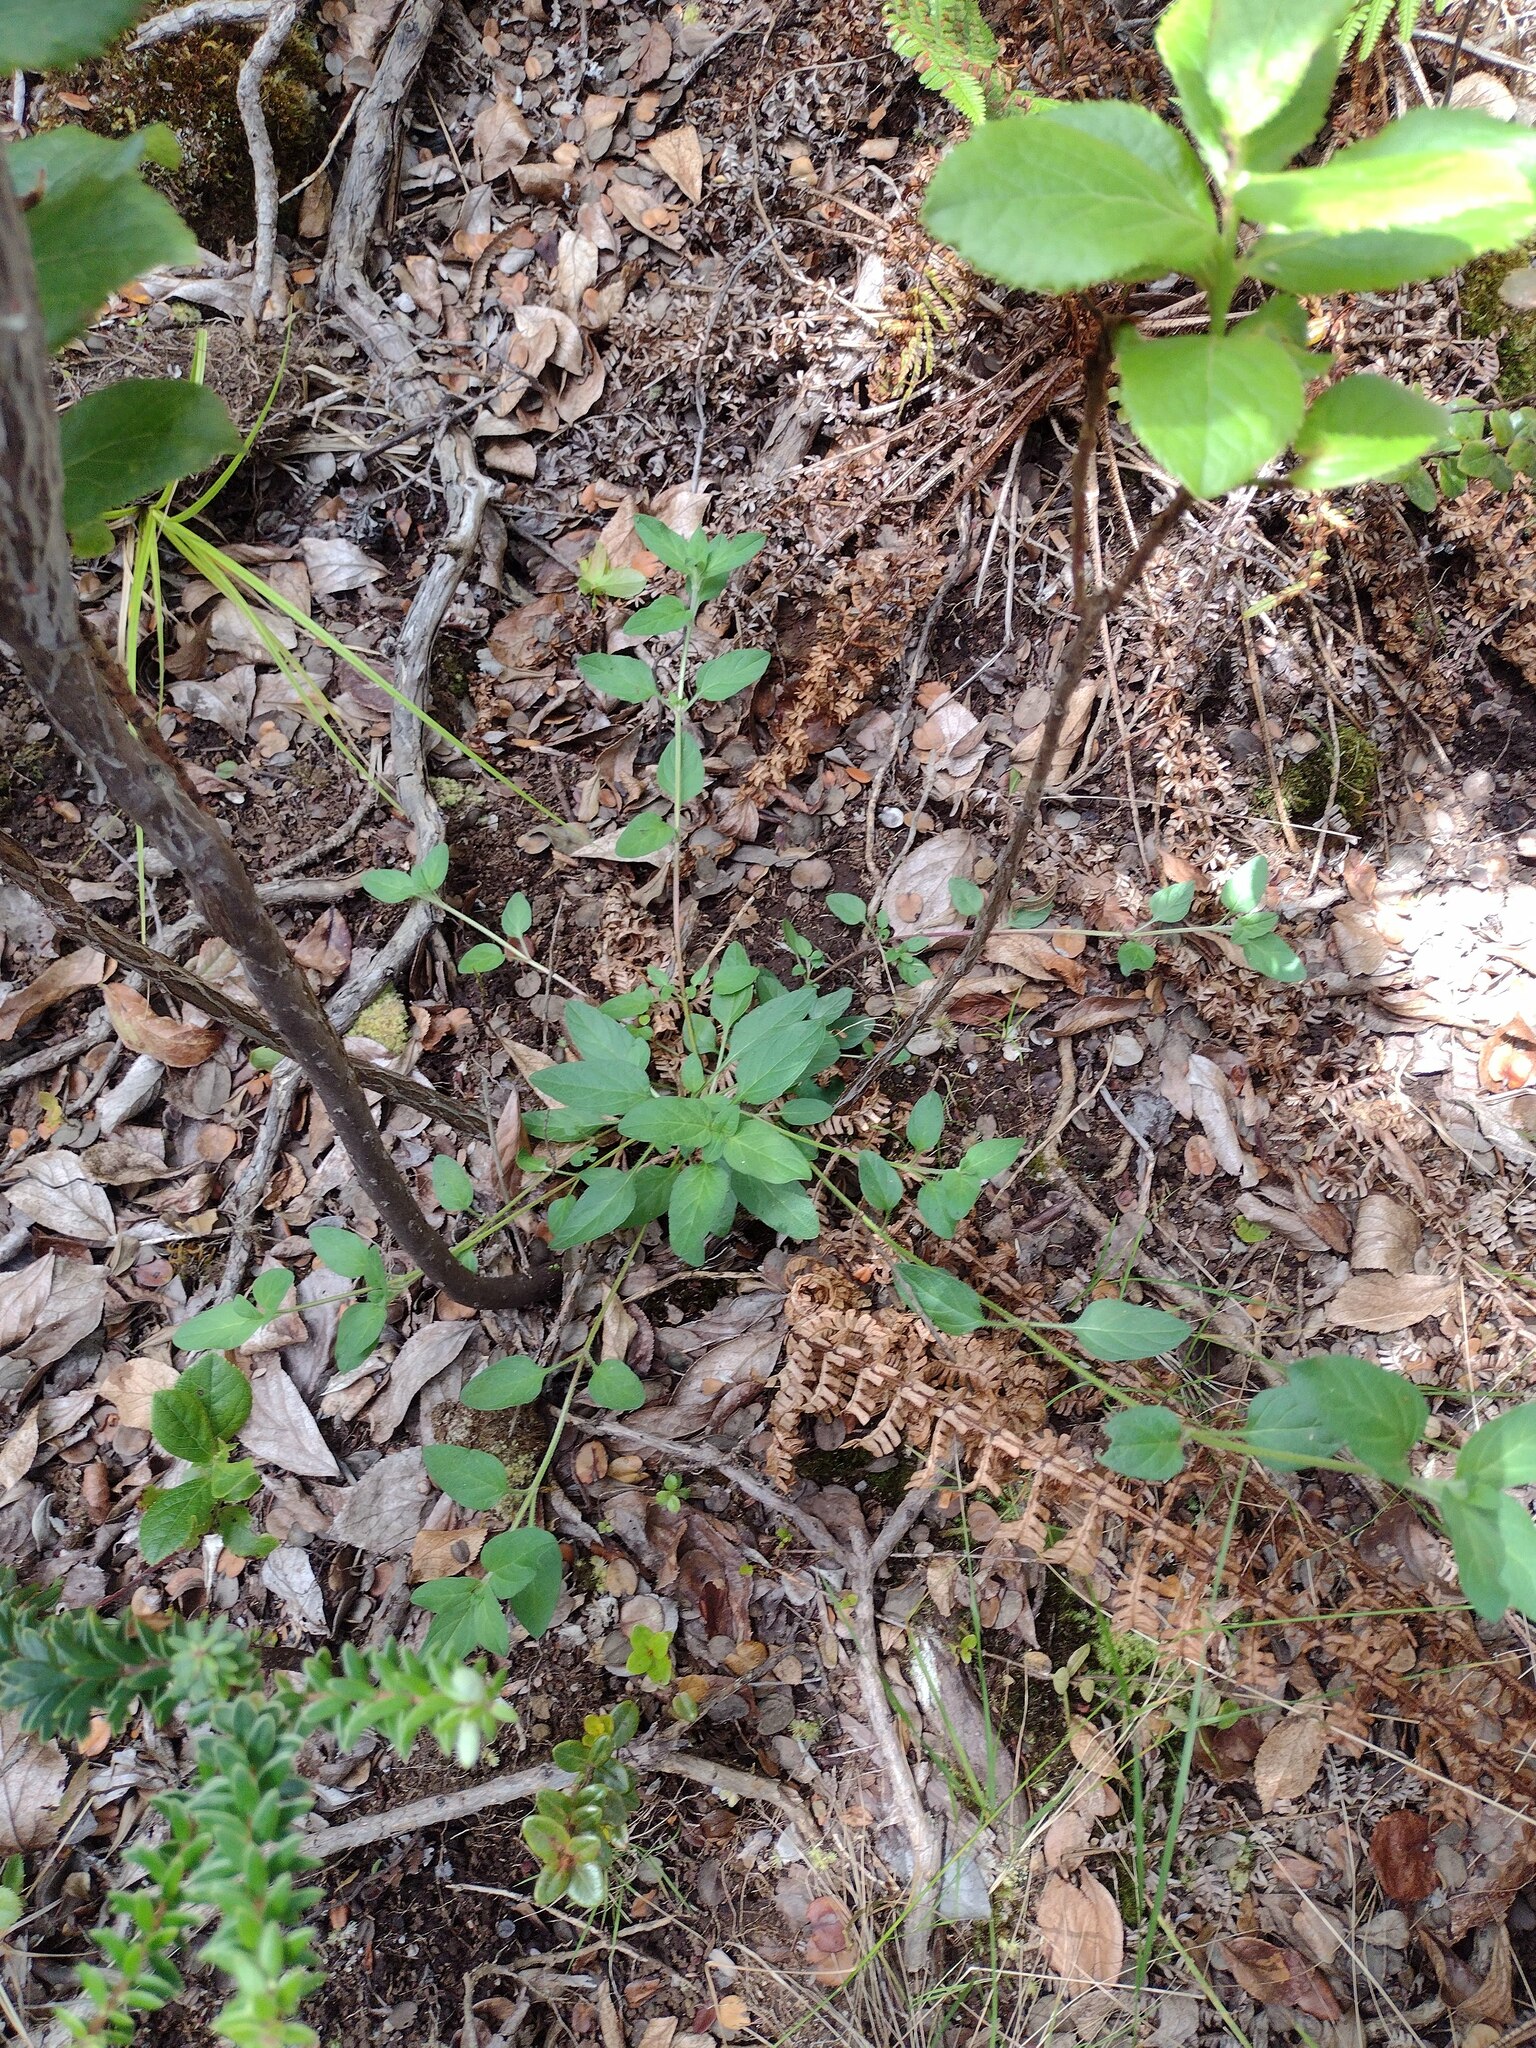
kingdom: Plantae
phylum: Tracheophyta
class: Magnoliopsida
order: Lamiales
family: Lamiaceae
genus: Prunella
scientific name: Prunella vulgaris
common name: Heal-all
